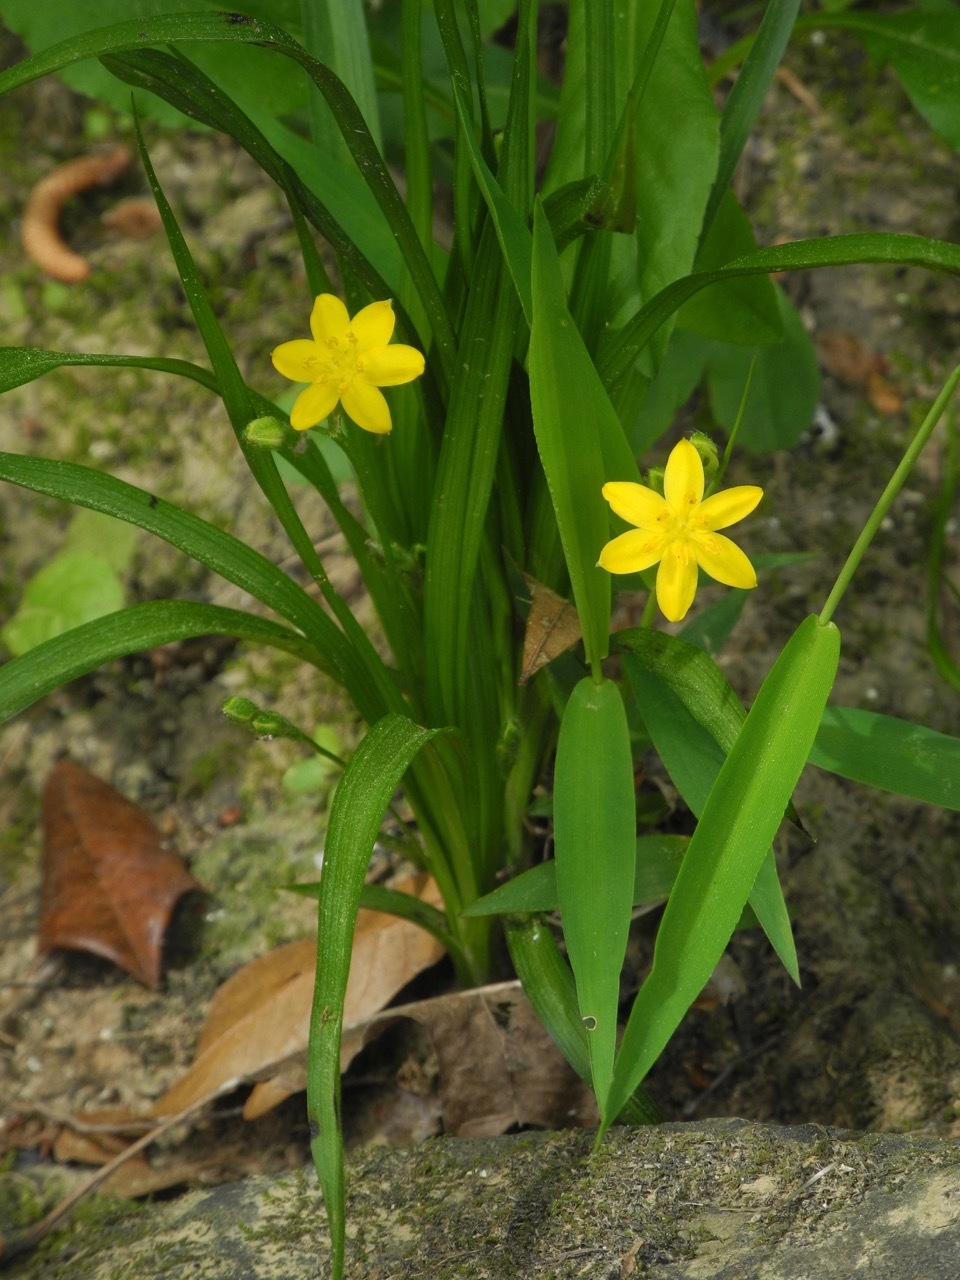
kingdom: Plantae
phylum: Tracheophyta
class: Liliopsida
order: Asparagales
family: Hypoxidaceae
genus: Hypoxis
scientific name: Hypoxis hirsuta
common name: Common goldstar
